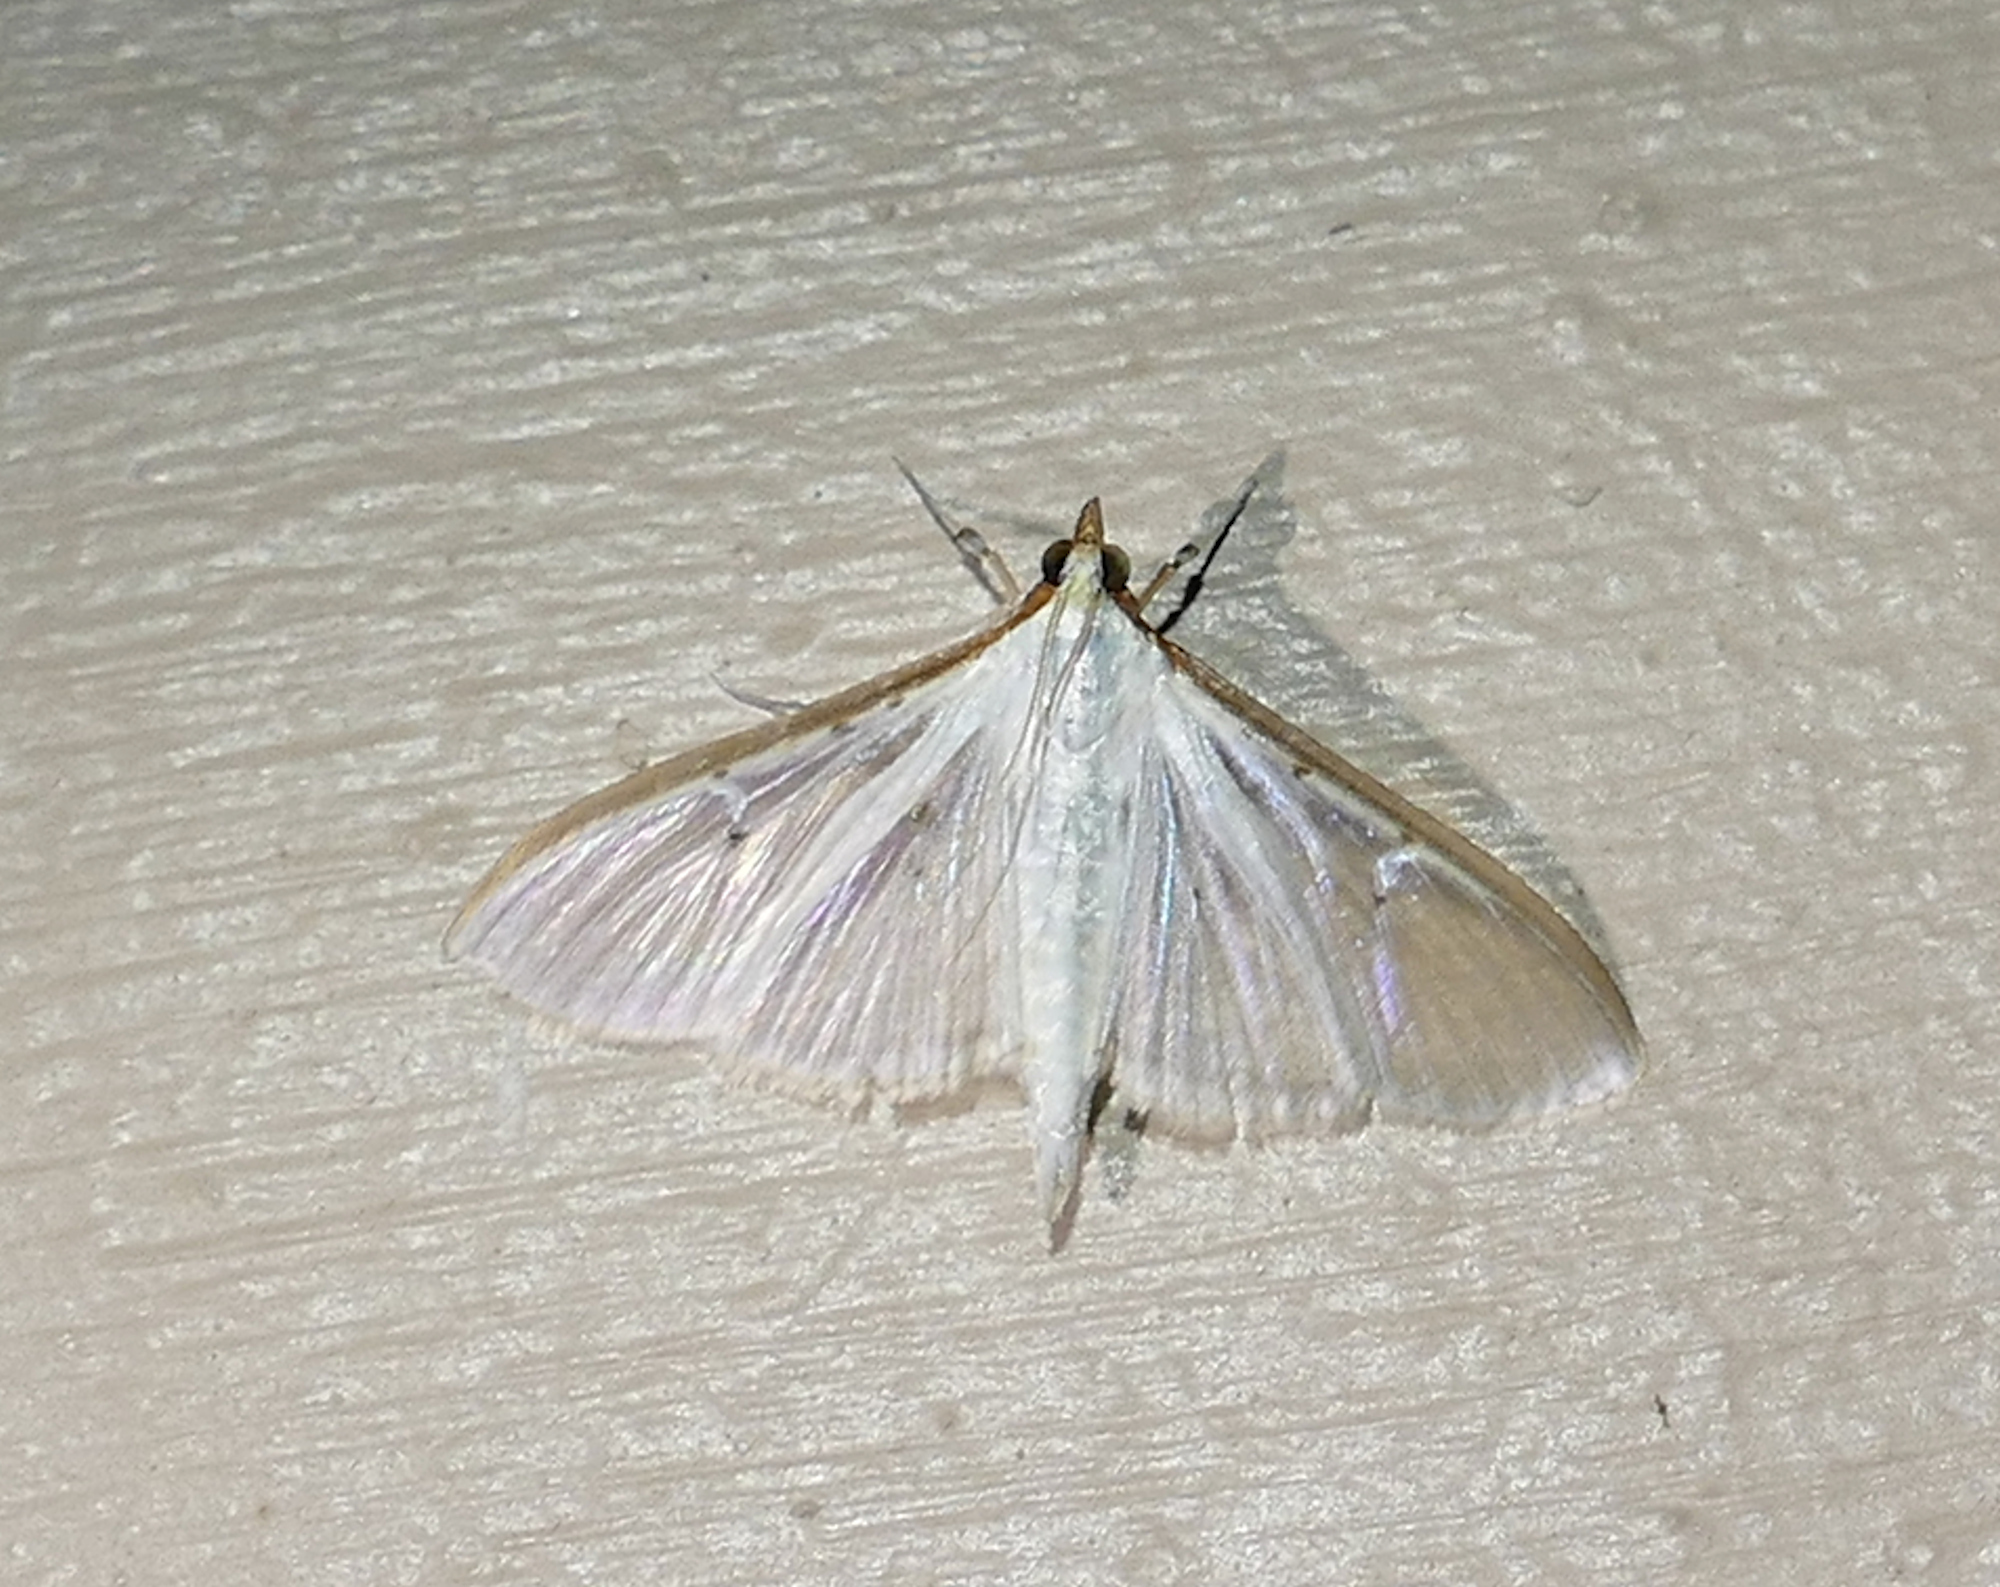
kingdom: Animalia
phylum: Arthropoda
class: Insecta
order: Lepidoptera
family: Crambidae
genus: Palpita
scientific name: Palpita quadristigmalis
